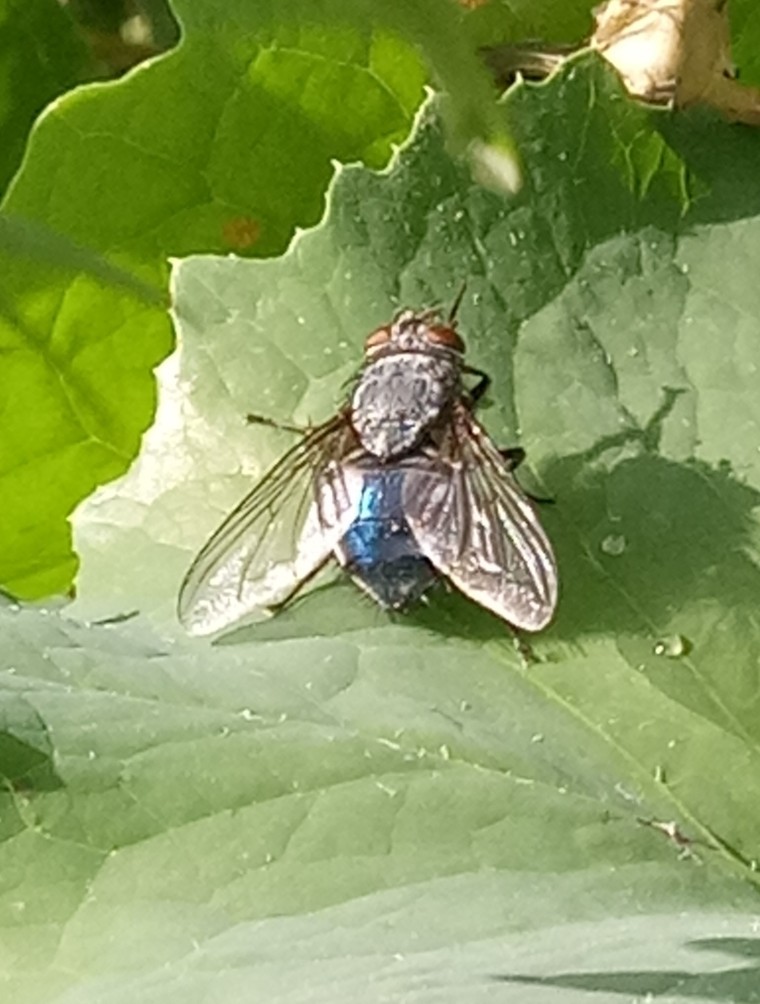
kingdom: Animalia
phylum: Arthropoda
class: Insecta
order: Diptera
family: Calliphoridae
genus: Calliphora
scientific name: Calliphora vicina
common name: Common blow flie
